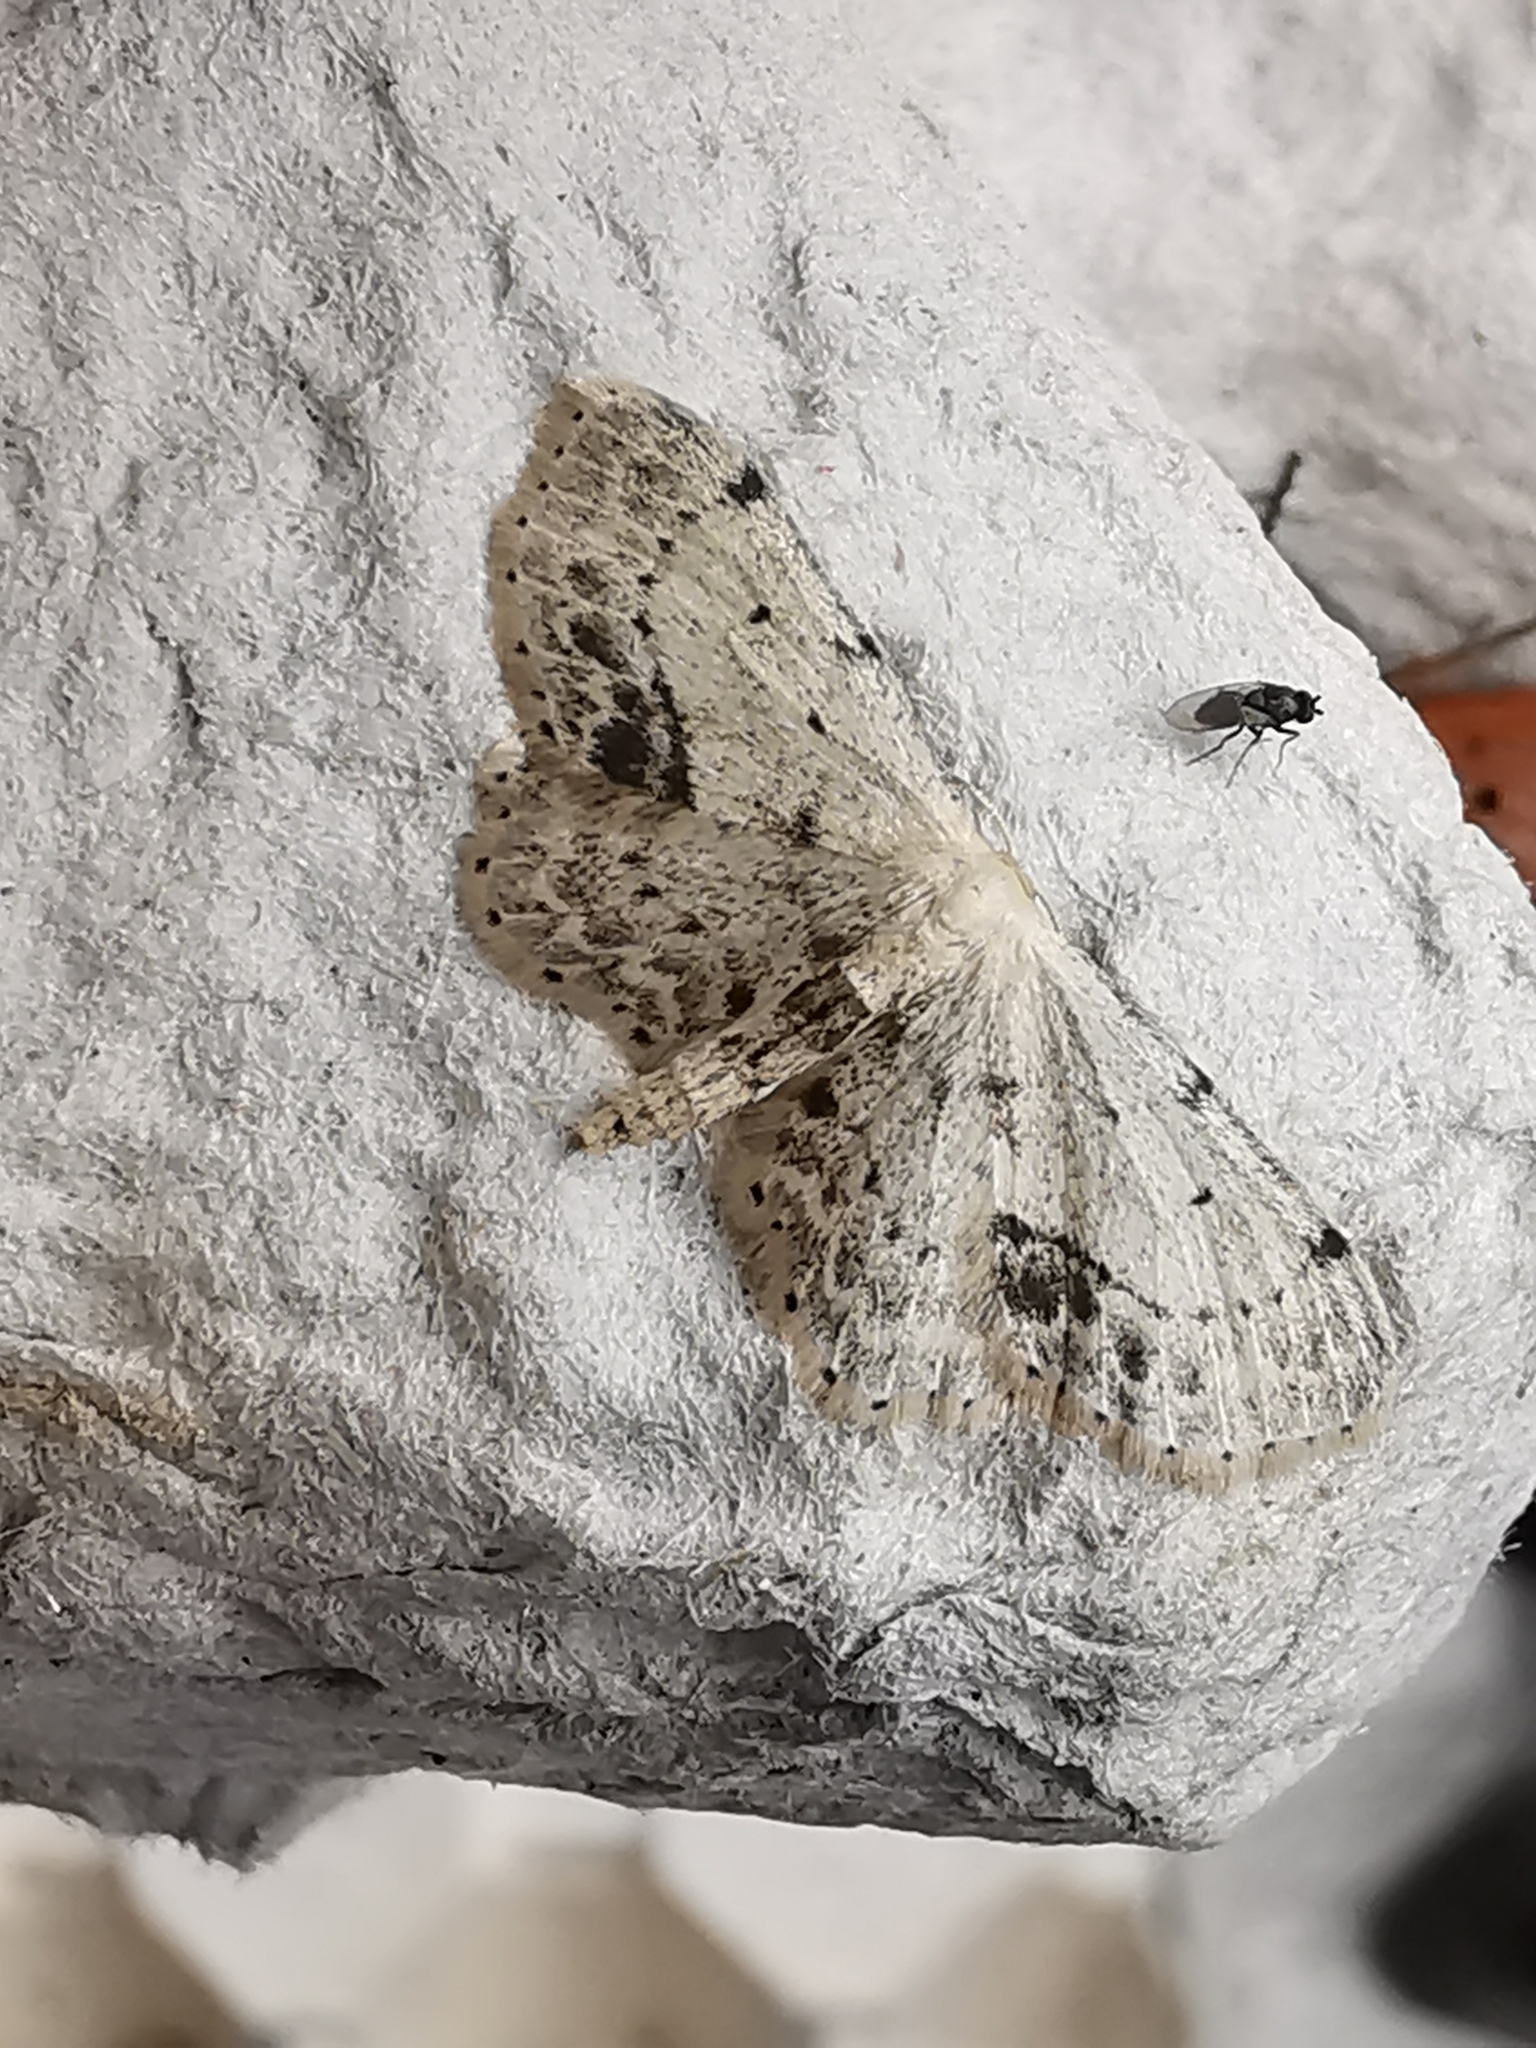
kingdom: Animalia
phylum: Arthropoda
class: Insecta
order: Lepidoptera
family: Geometridae
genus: Idaea
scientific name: Idaea dimidiata
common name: Single-dotted wave
